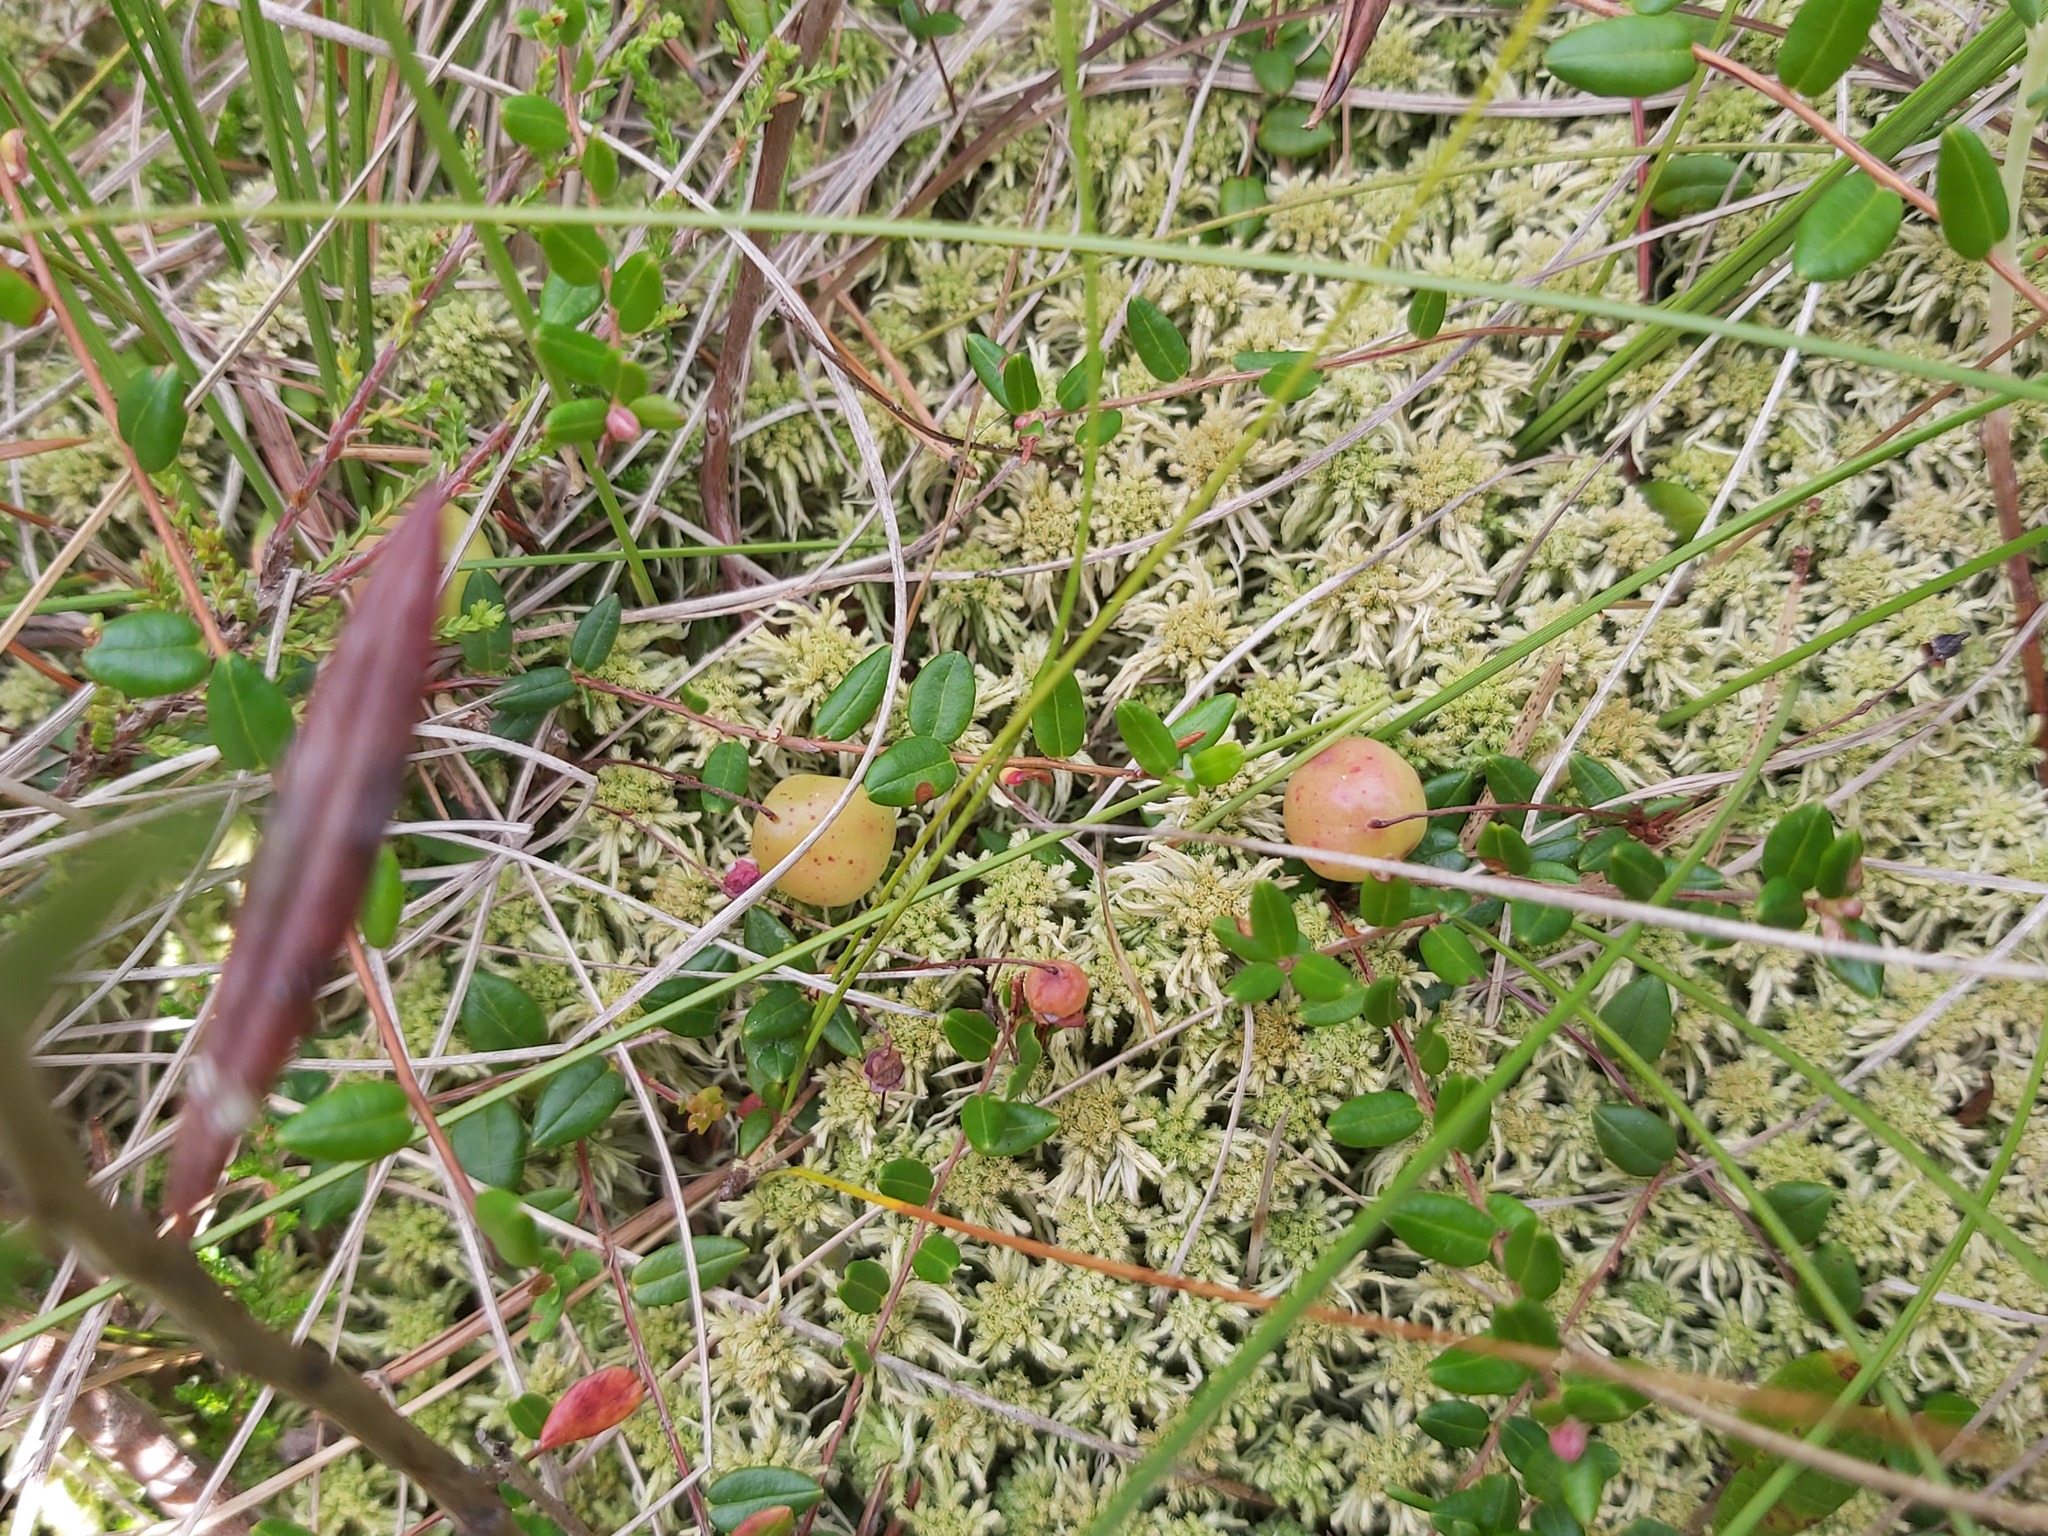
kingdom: Plantae
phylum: Tracheophyta
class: Magnoliopsida
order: Ericales
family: Ericaceae
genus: Vaccinium
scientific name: Vaccinium oxycoccos
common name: Cranberry
